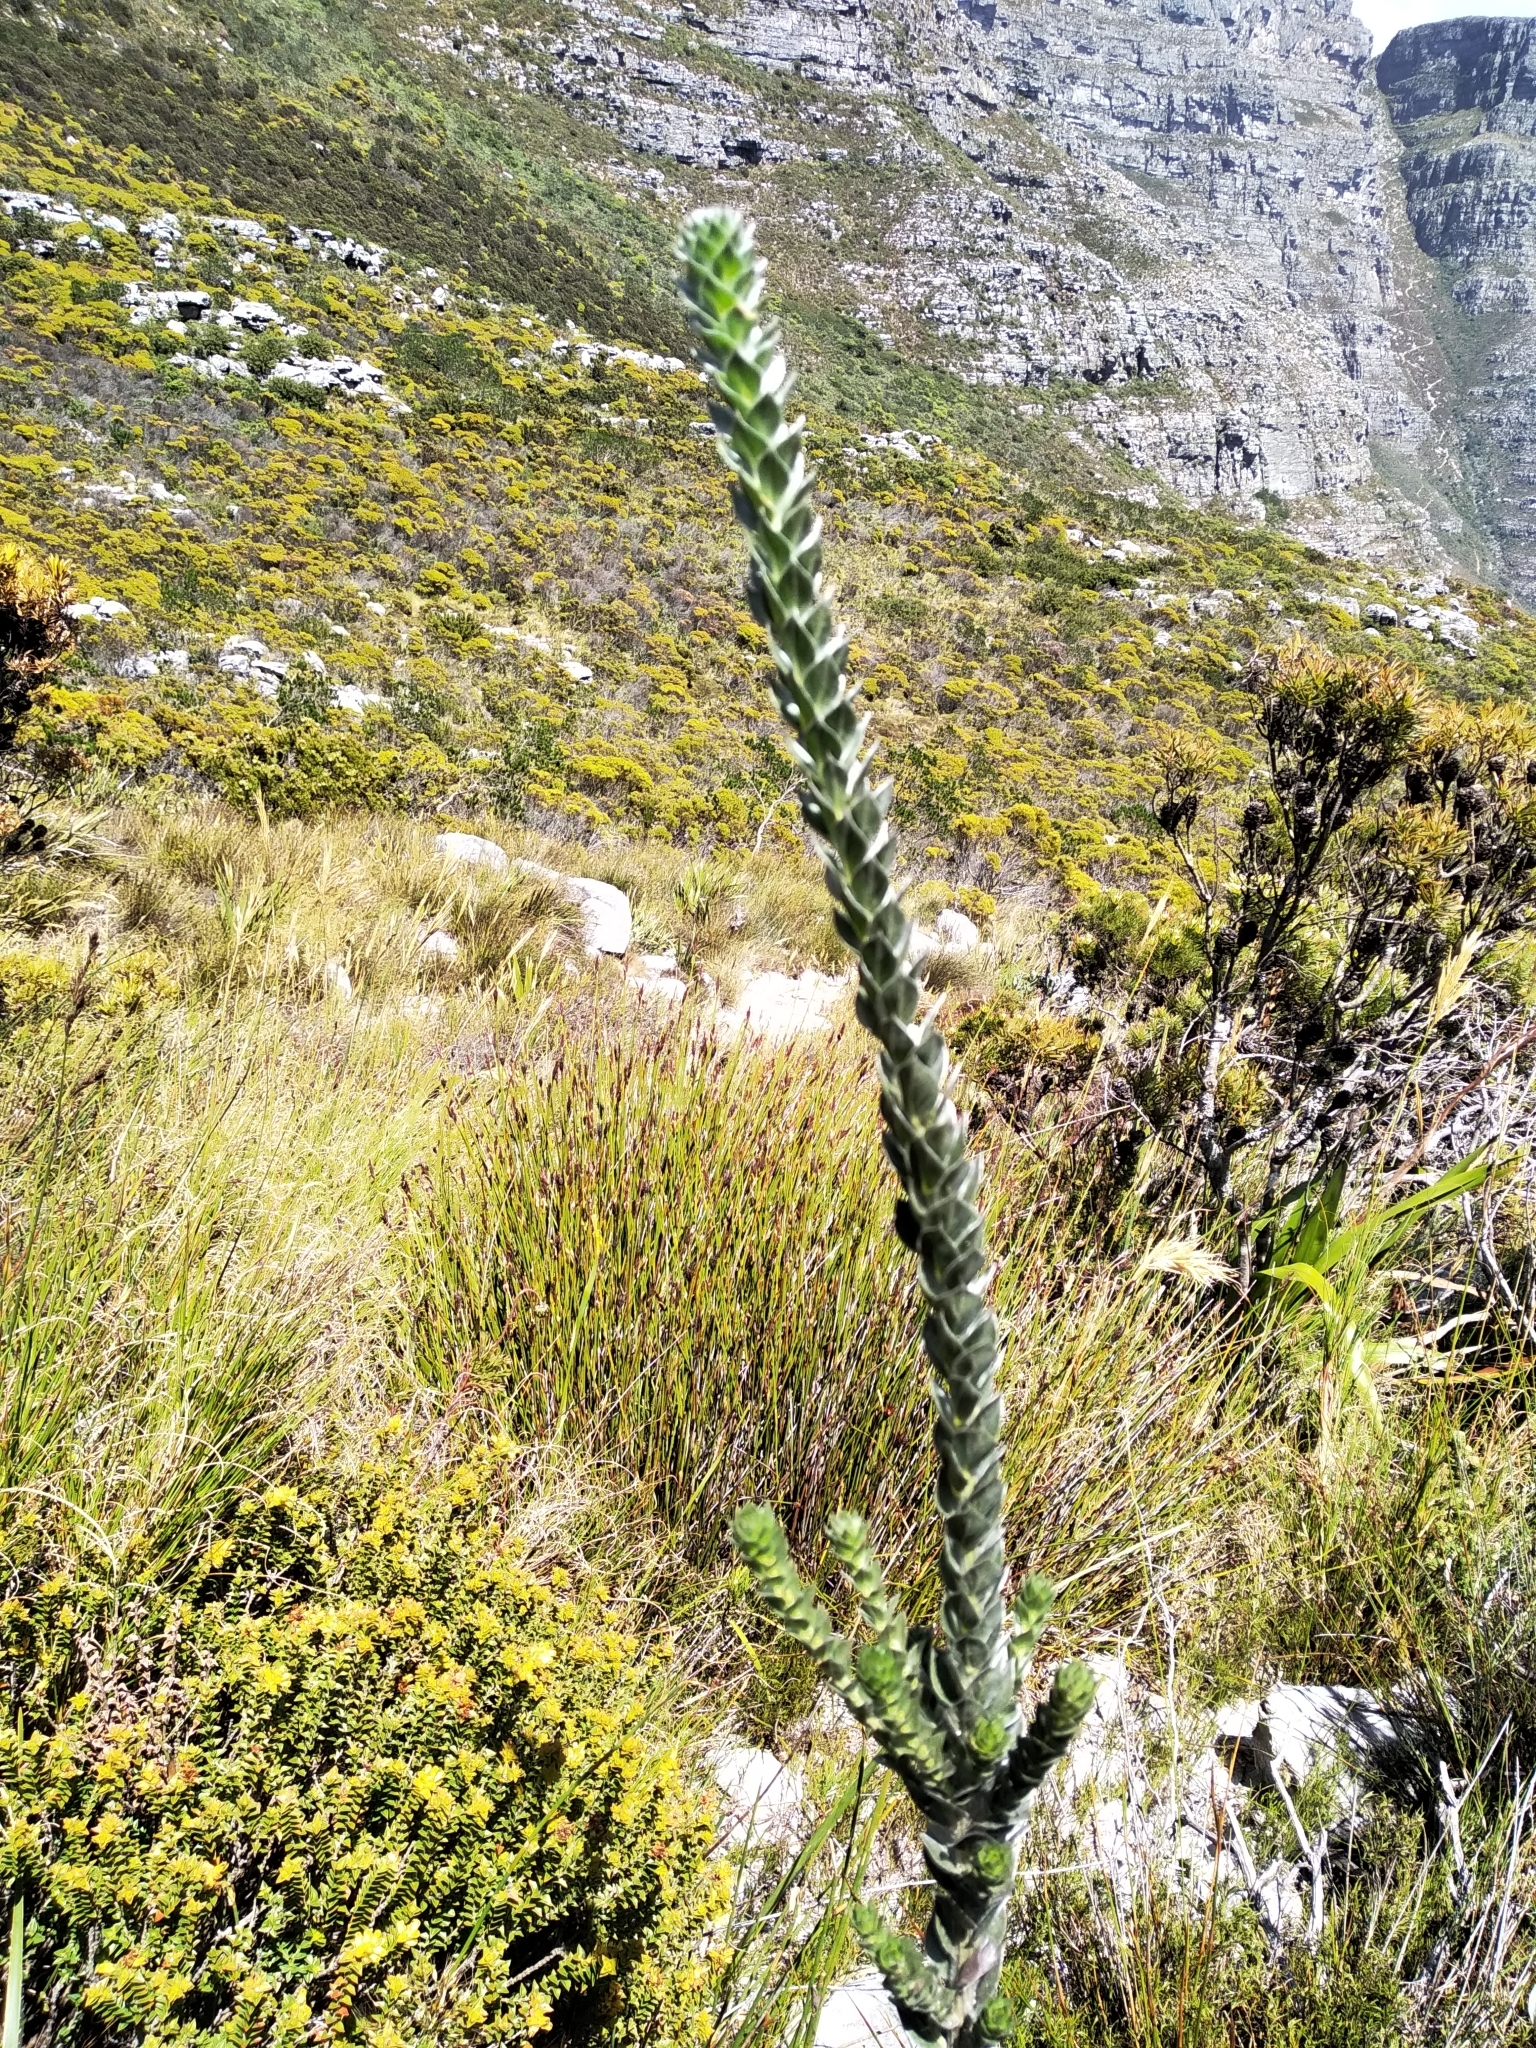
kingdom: Plantae
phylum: Tracheophyta
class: Magnoliopsida
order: Fabales
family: Fabaceae
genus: Amphithalea
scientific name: Amphithalea imbricata
